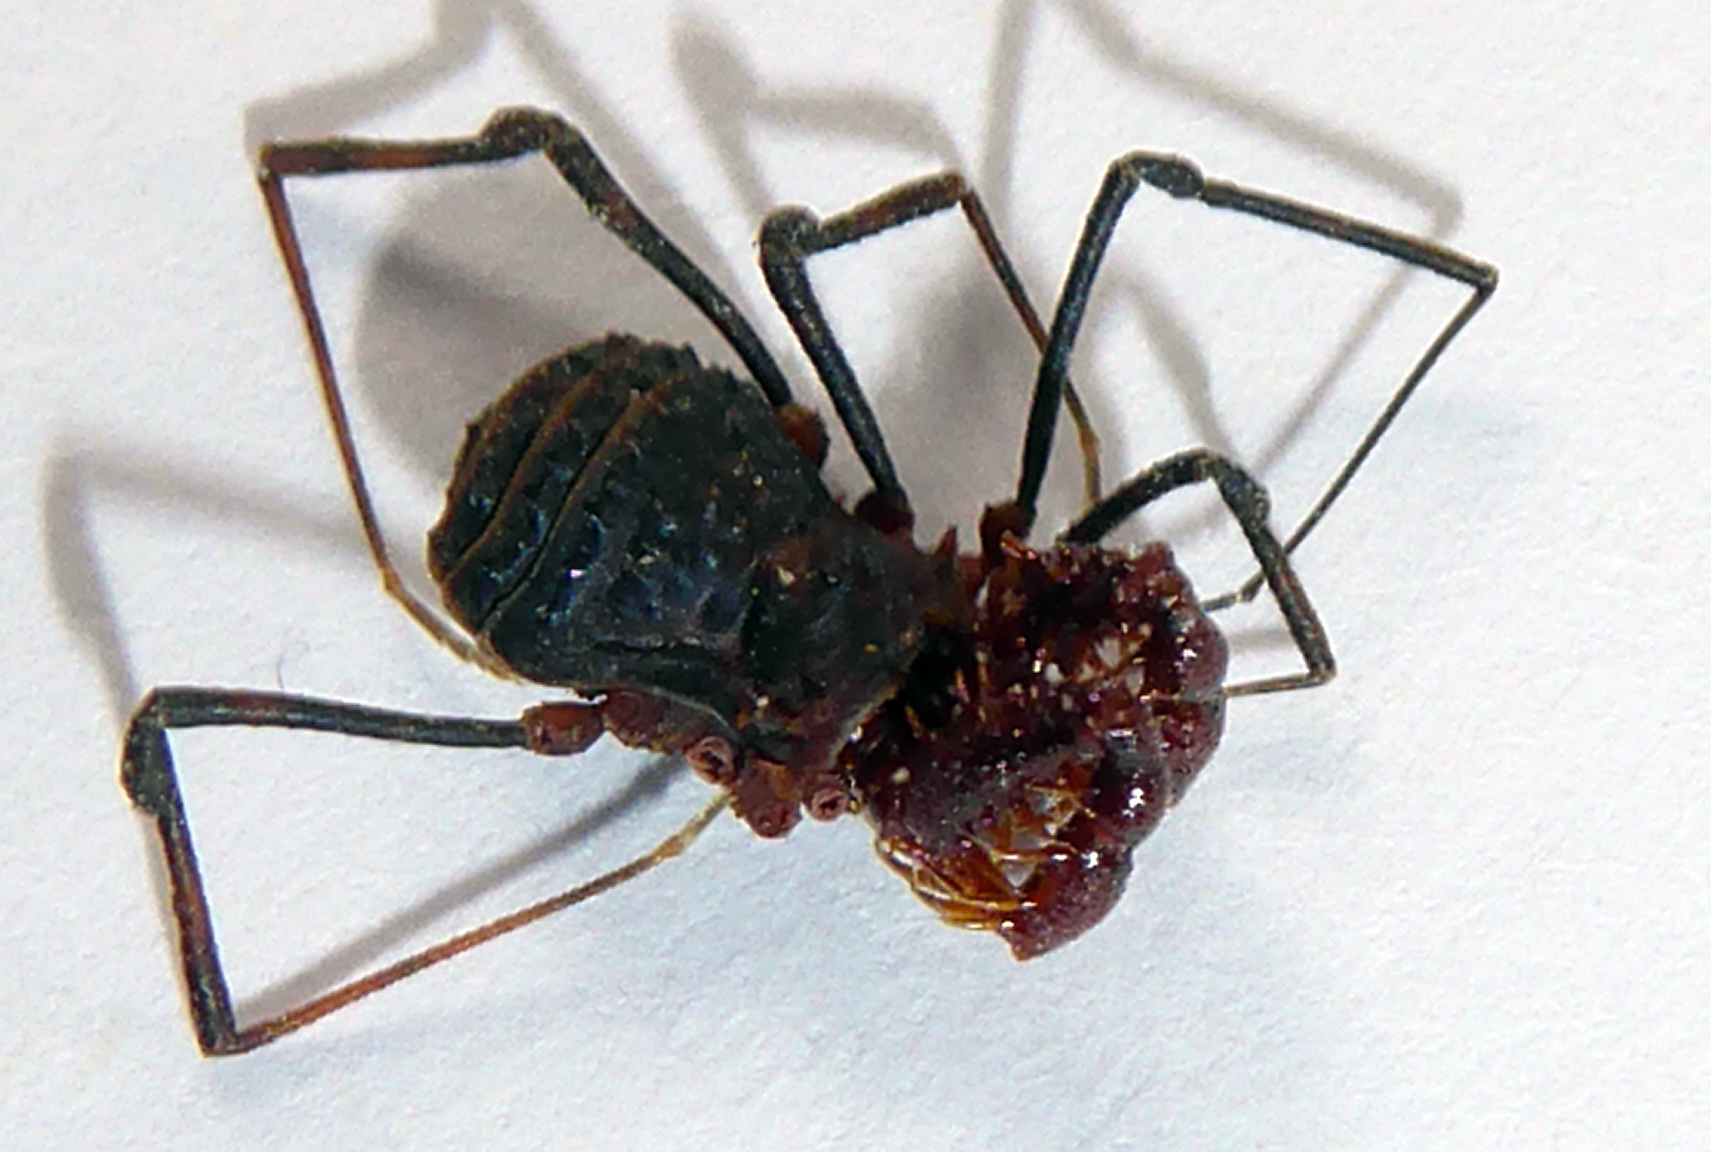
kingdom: Animalia
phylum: Arthropoda
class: Arachnida
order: Opiliones
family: Triaenonychidae
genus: Sorensenella
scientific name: Sorensenella prehensor
